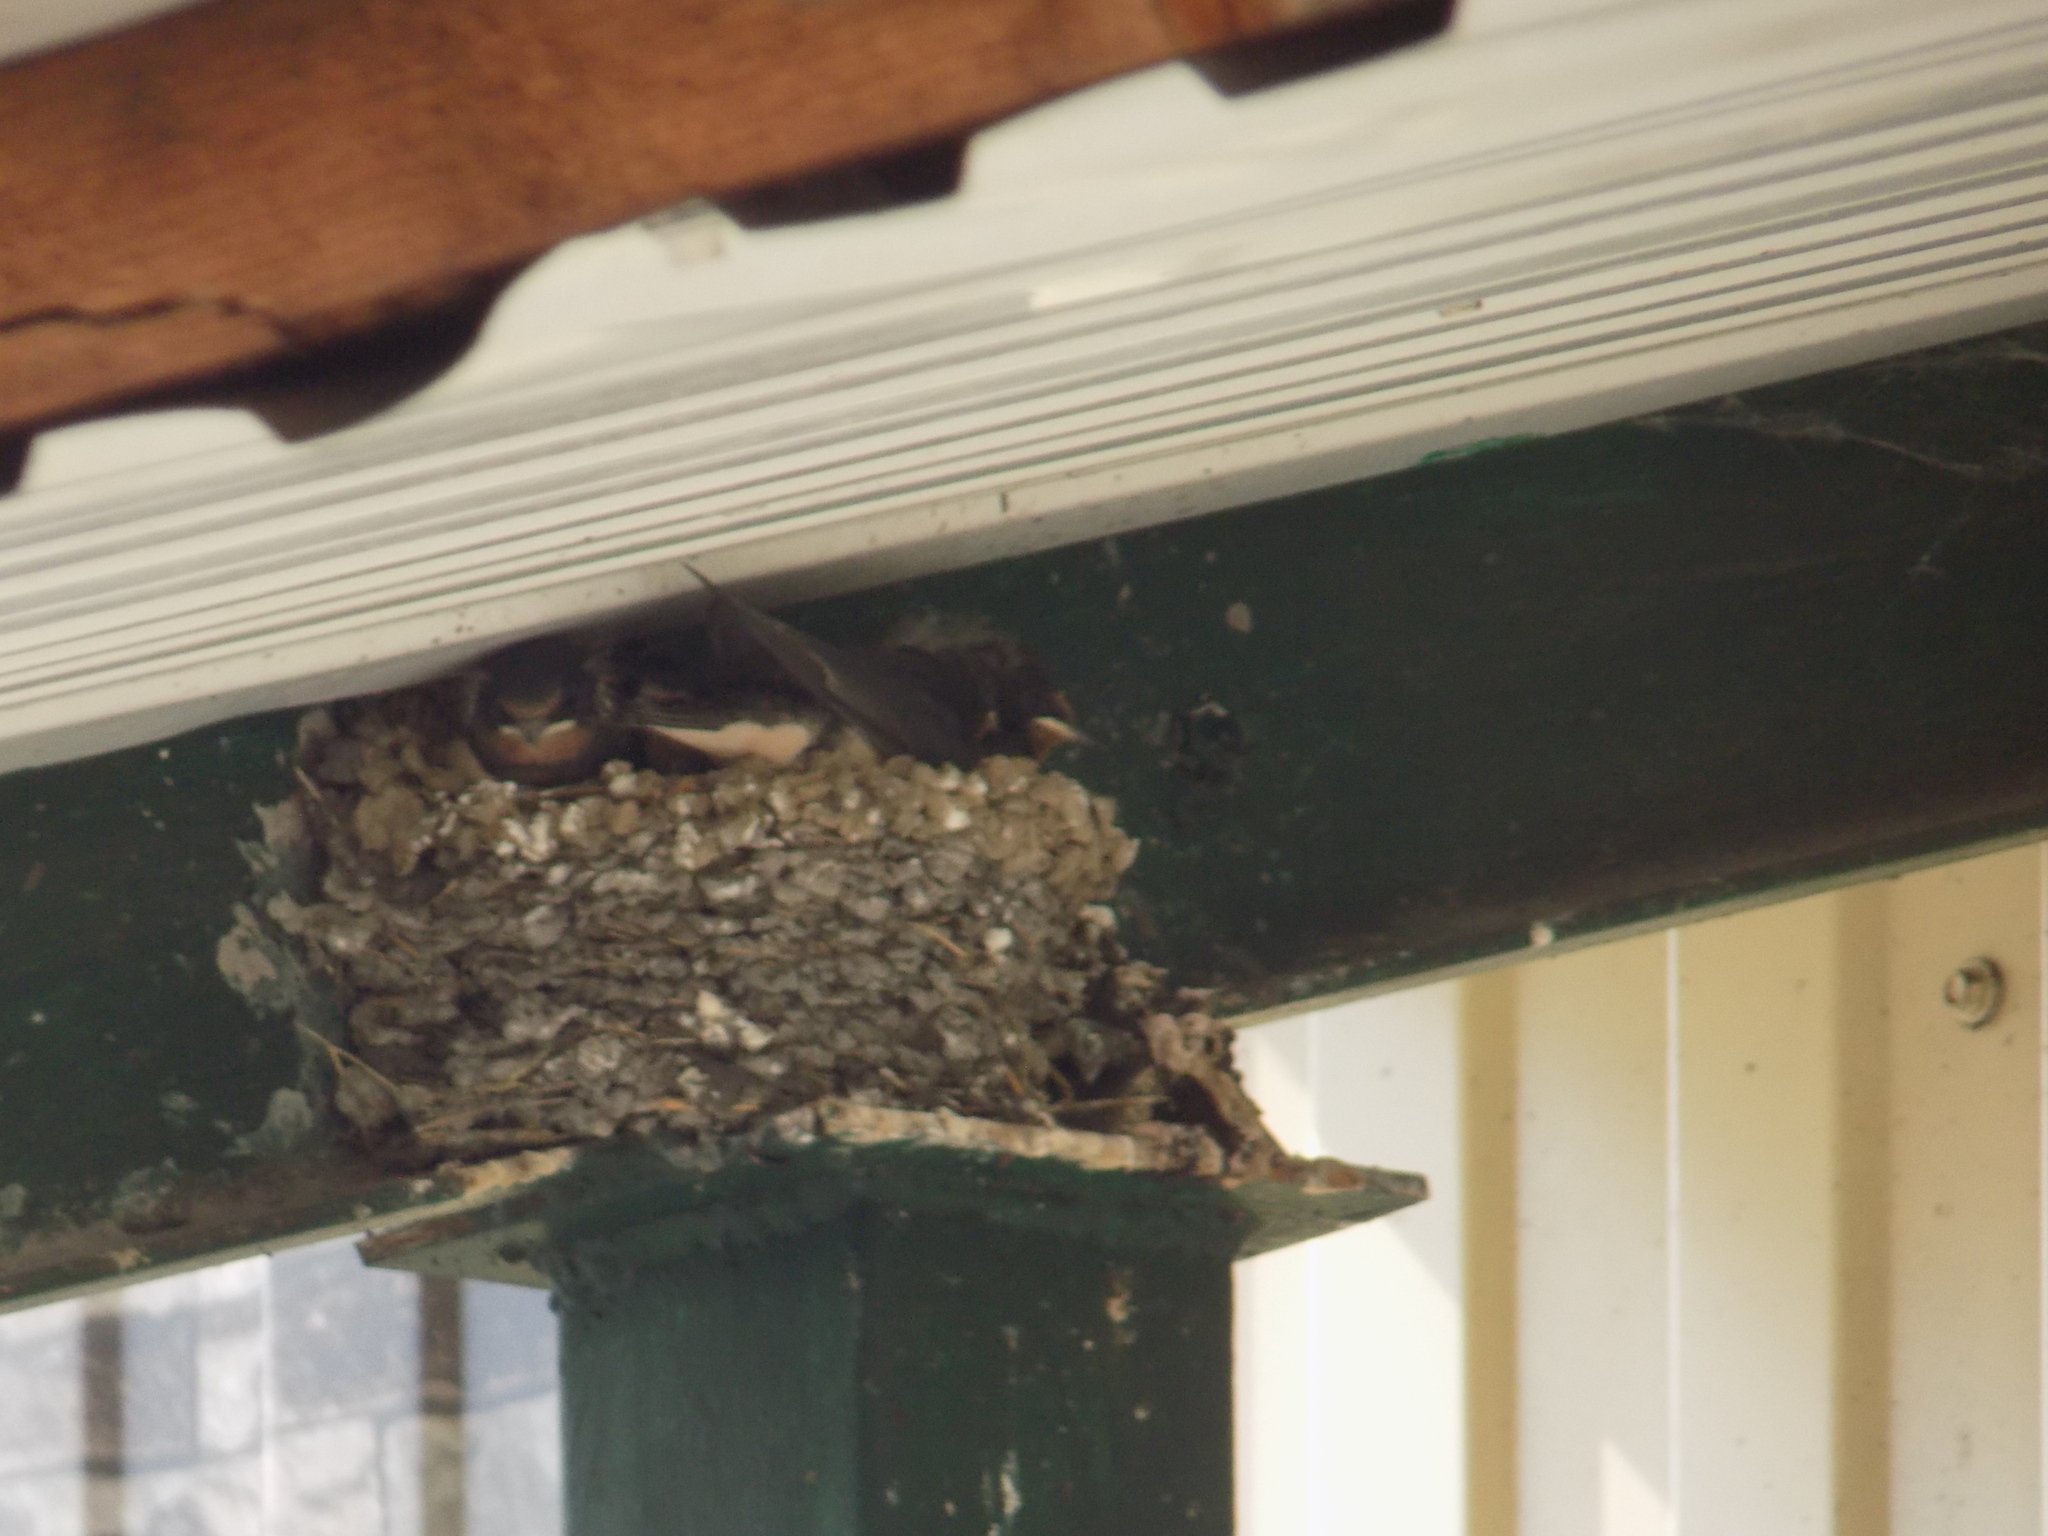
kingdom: Animalia
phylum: Chordata
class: Aves
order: Passeriformes
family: Hirundinidae
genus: Hirundo
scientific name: Hirundo rustica
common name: Barn swallow
